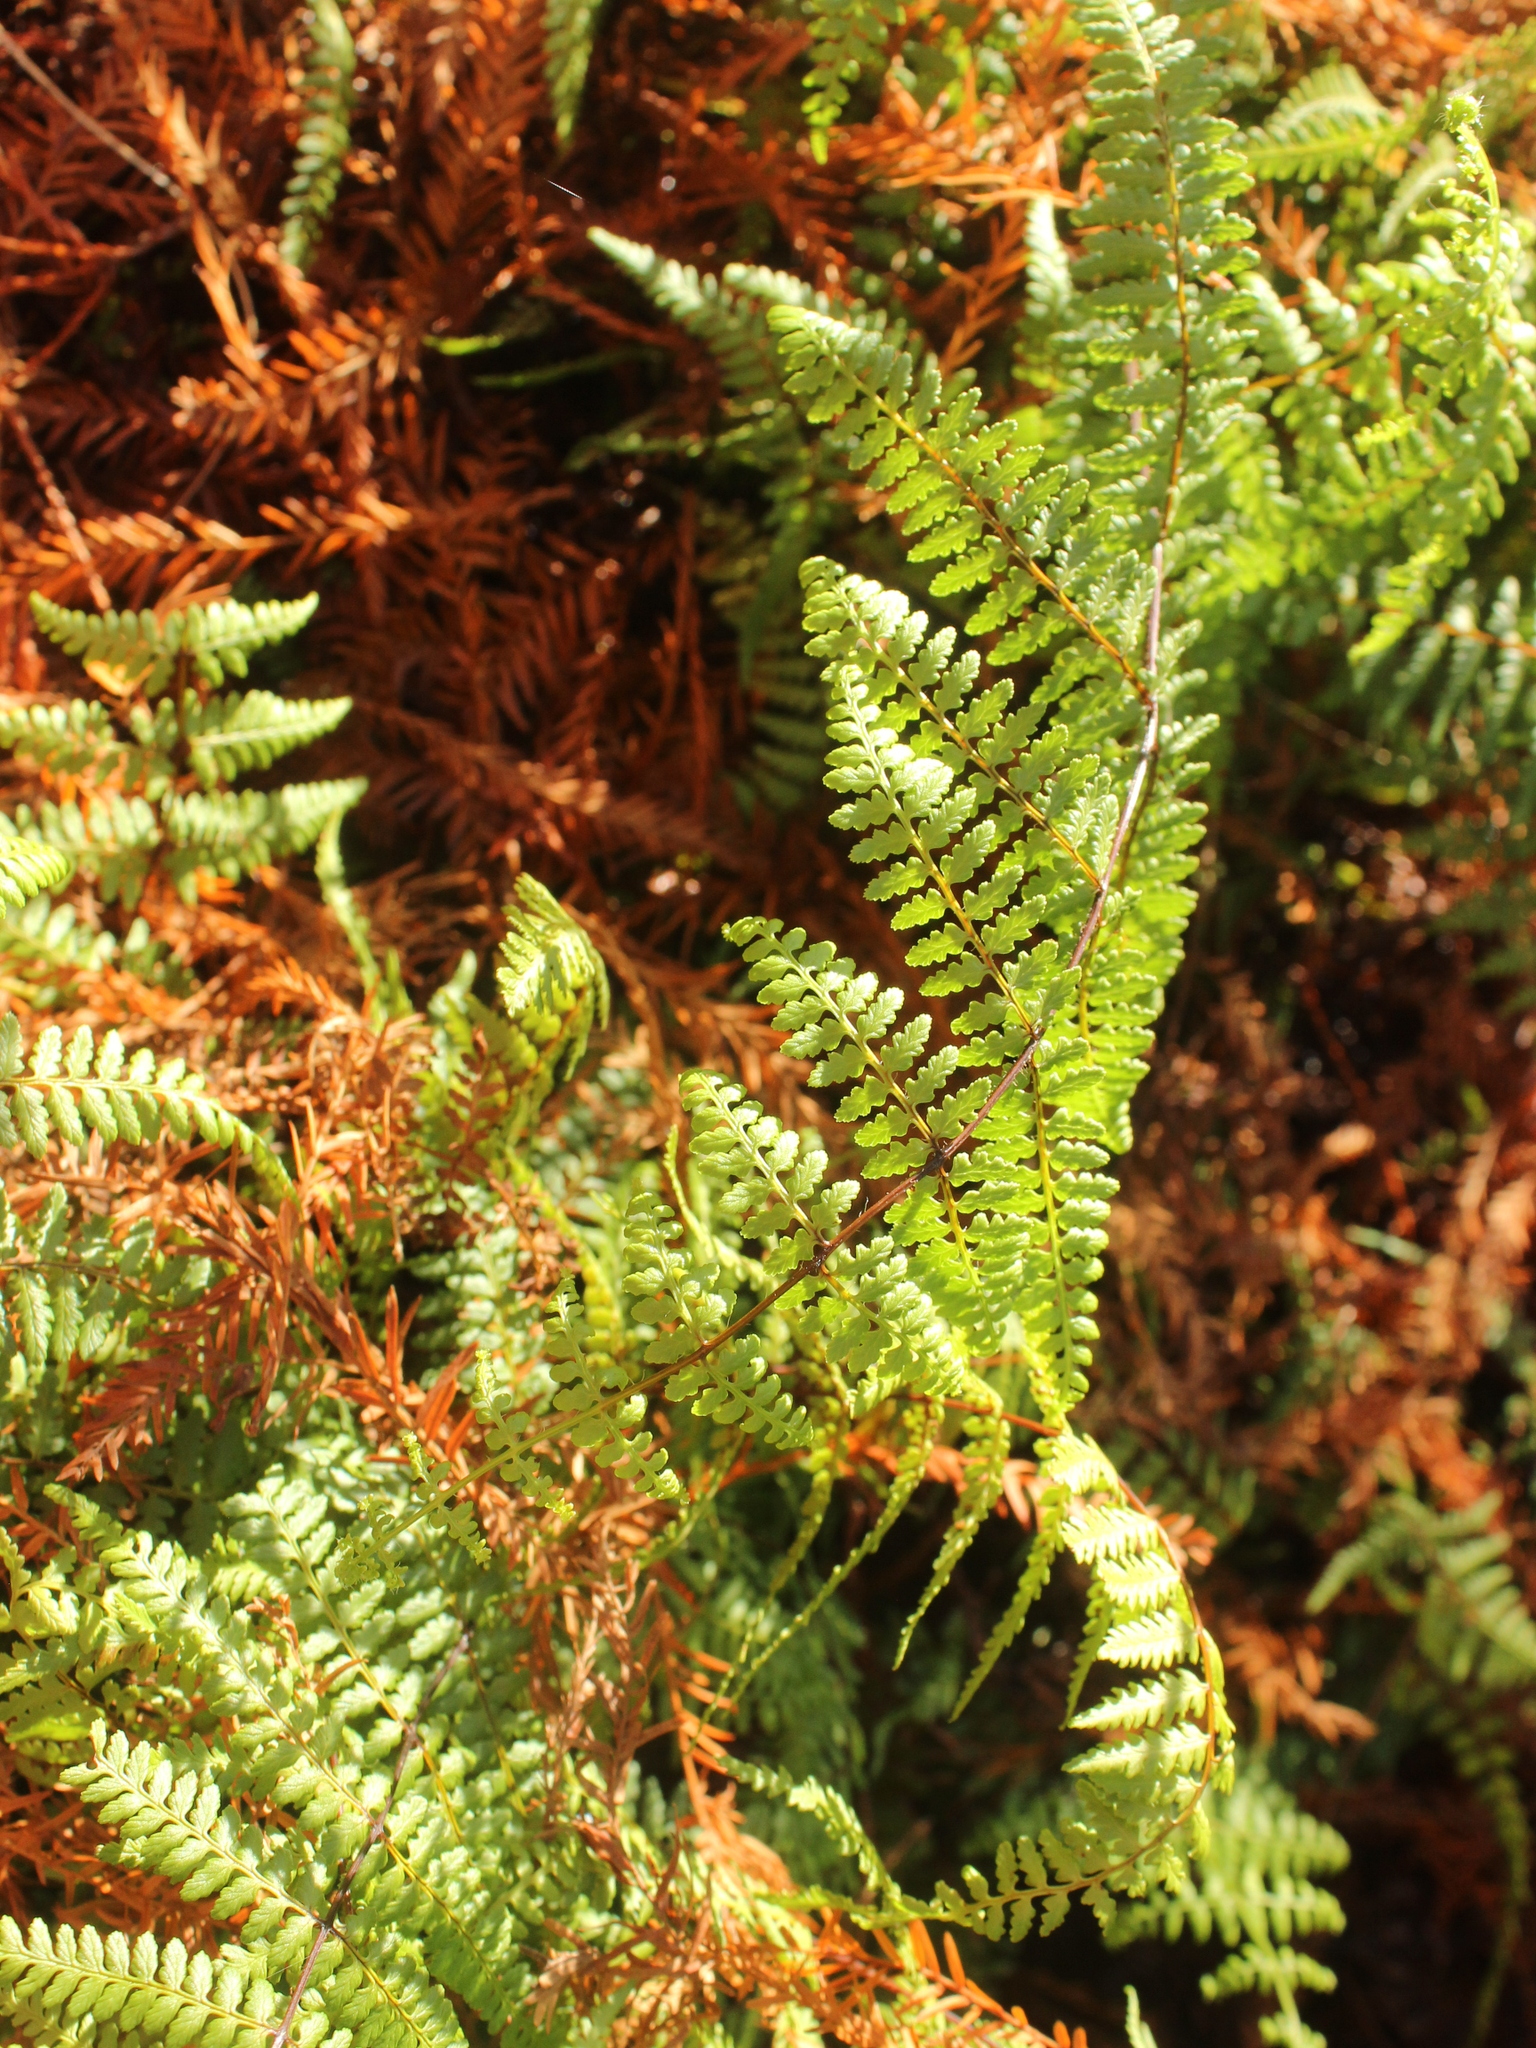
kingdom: Plantae
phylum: Tracheophyta
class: Polypodiopsida
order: Polypodiales
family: Dennstaedtiaceae
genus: Hiya
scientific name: Hiya distans
